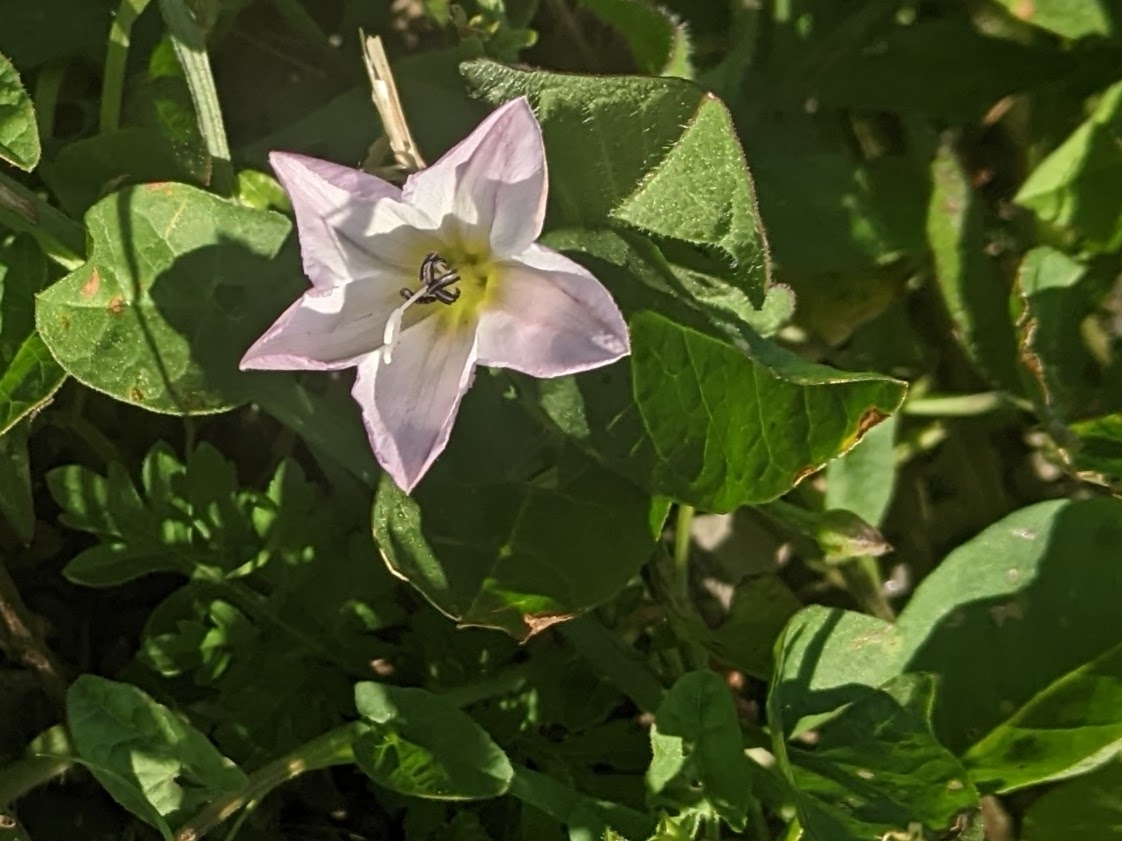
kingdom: Plantae
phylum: Tracheophyta
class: Magnoliopsida
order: Solanales
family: Convolvulaceae
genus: Convolvulus
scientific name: Convolvulus arvensis
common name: Field bindweed
